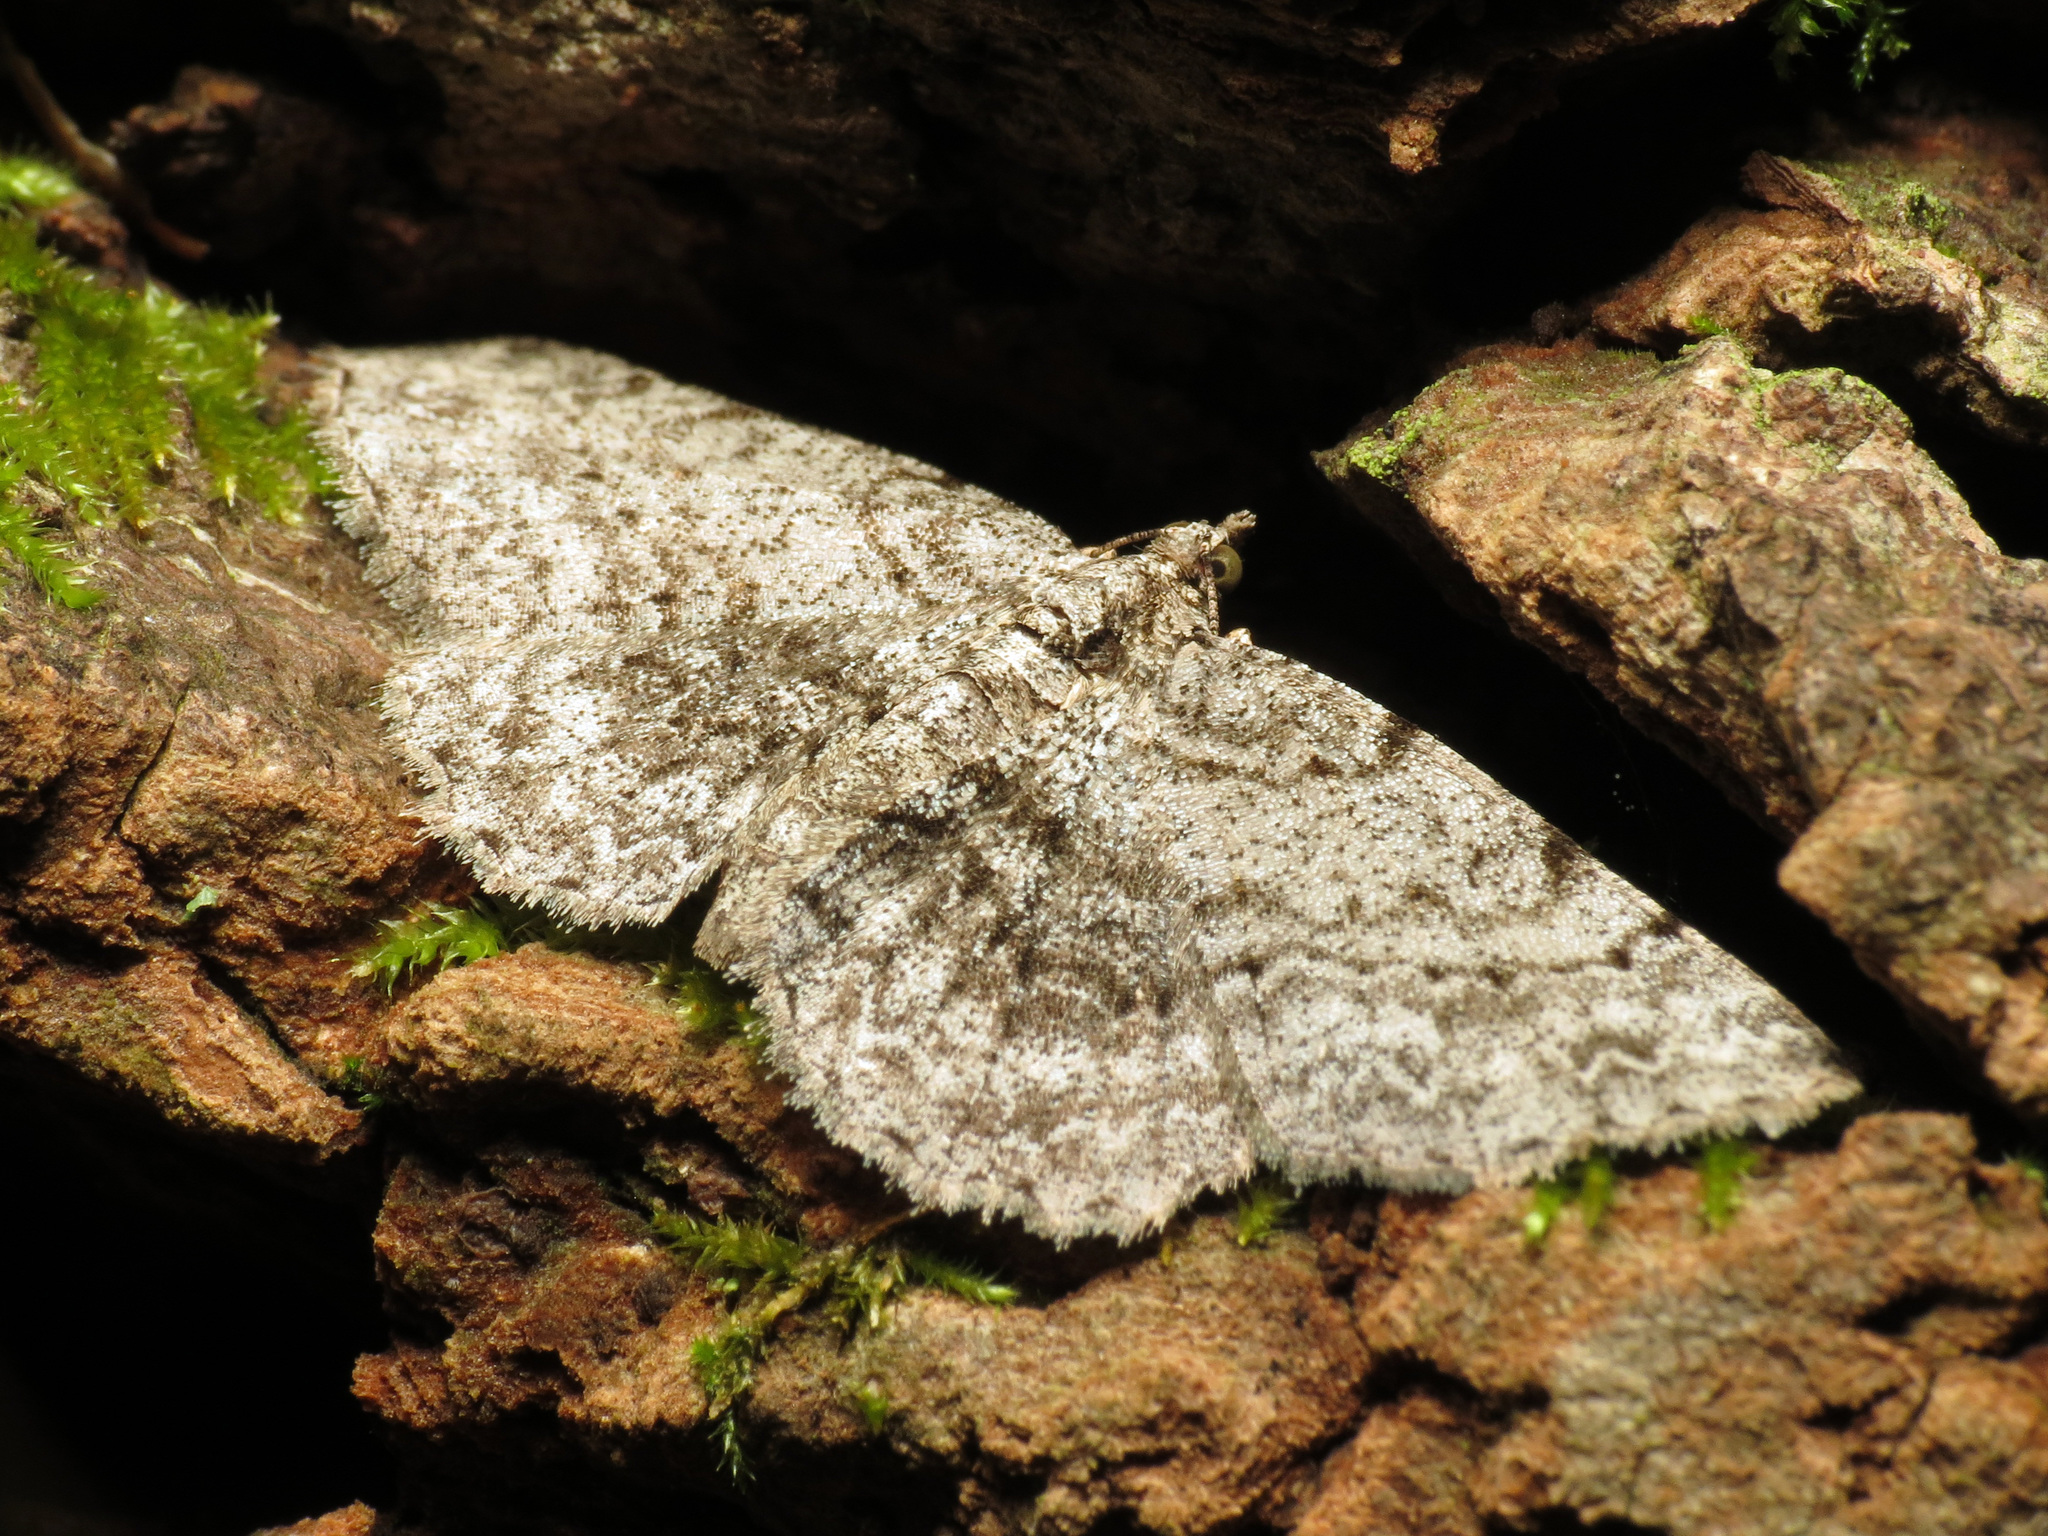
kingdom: Animalia
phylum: Arthropoda
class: Insecta
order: Lepidoptera
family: Geometridae
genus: Protoboarmia
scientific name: Protoboarmia porcelaria
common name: Porcelain gray
